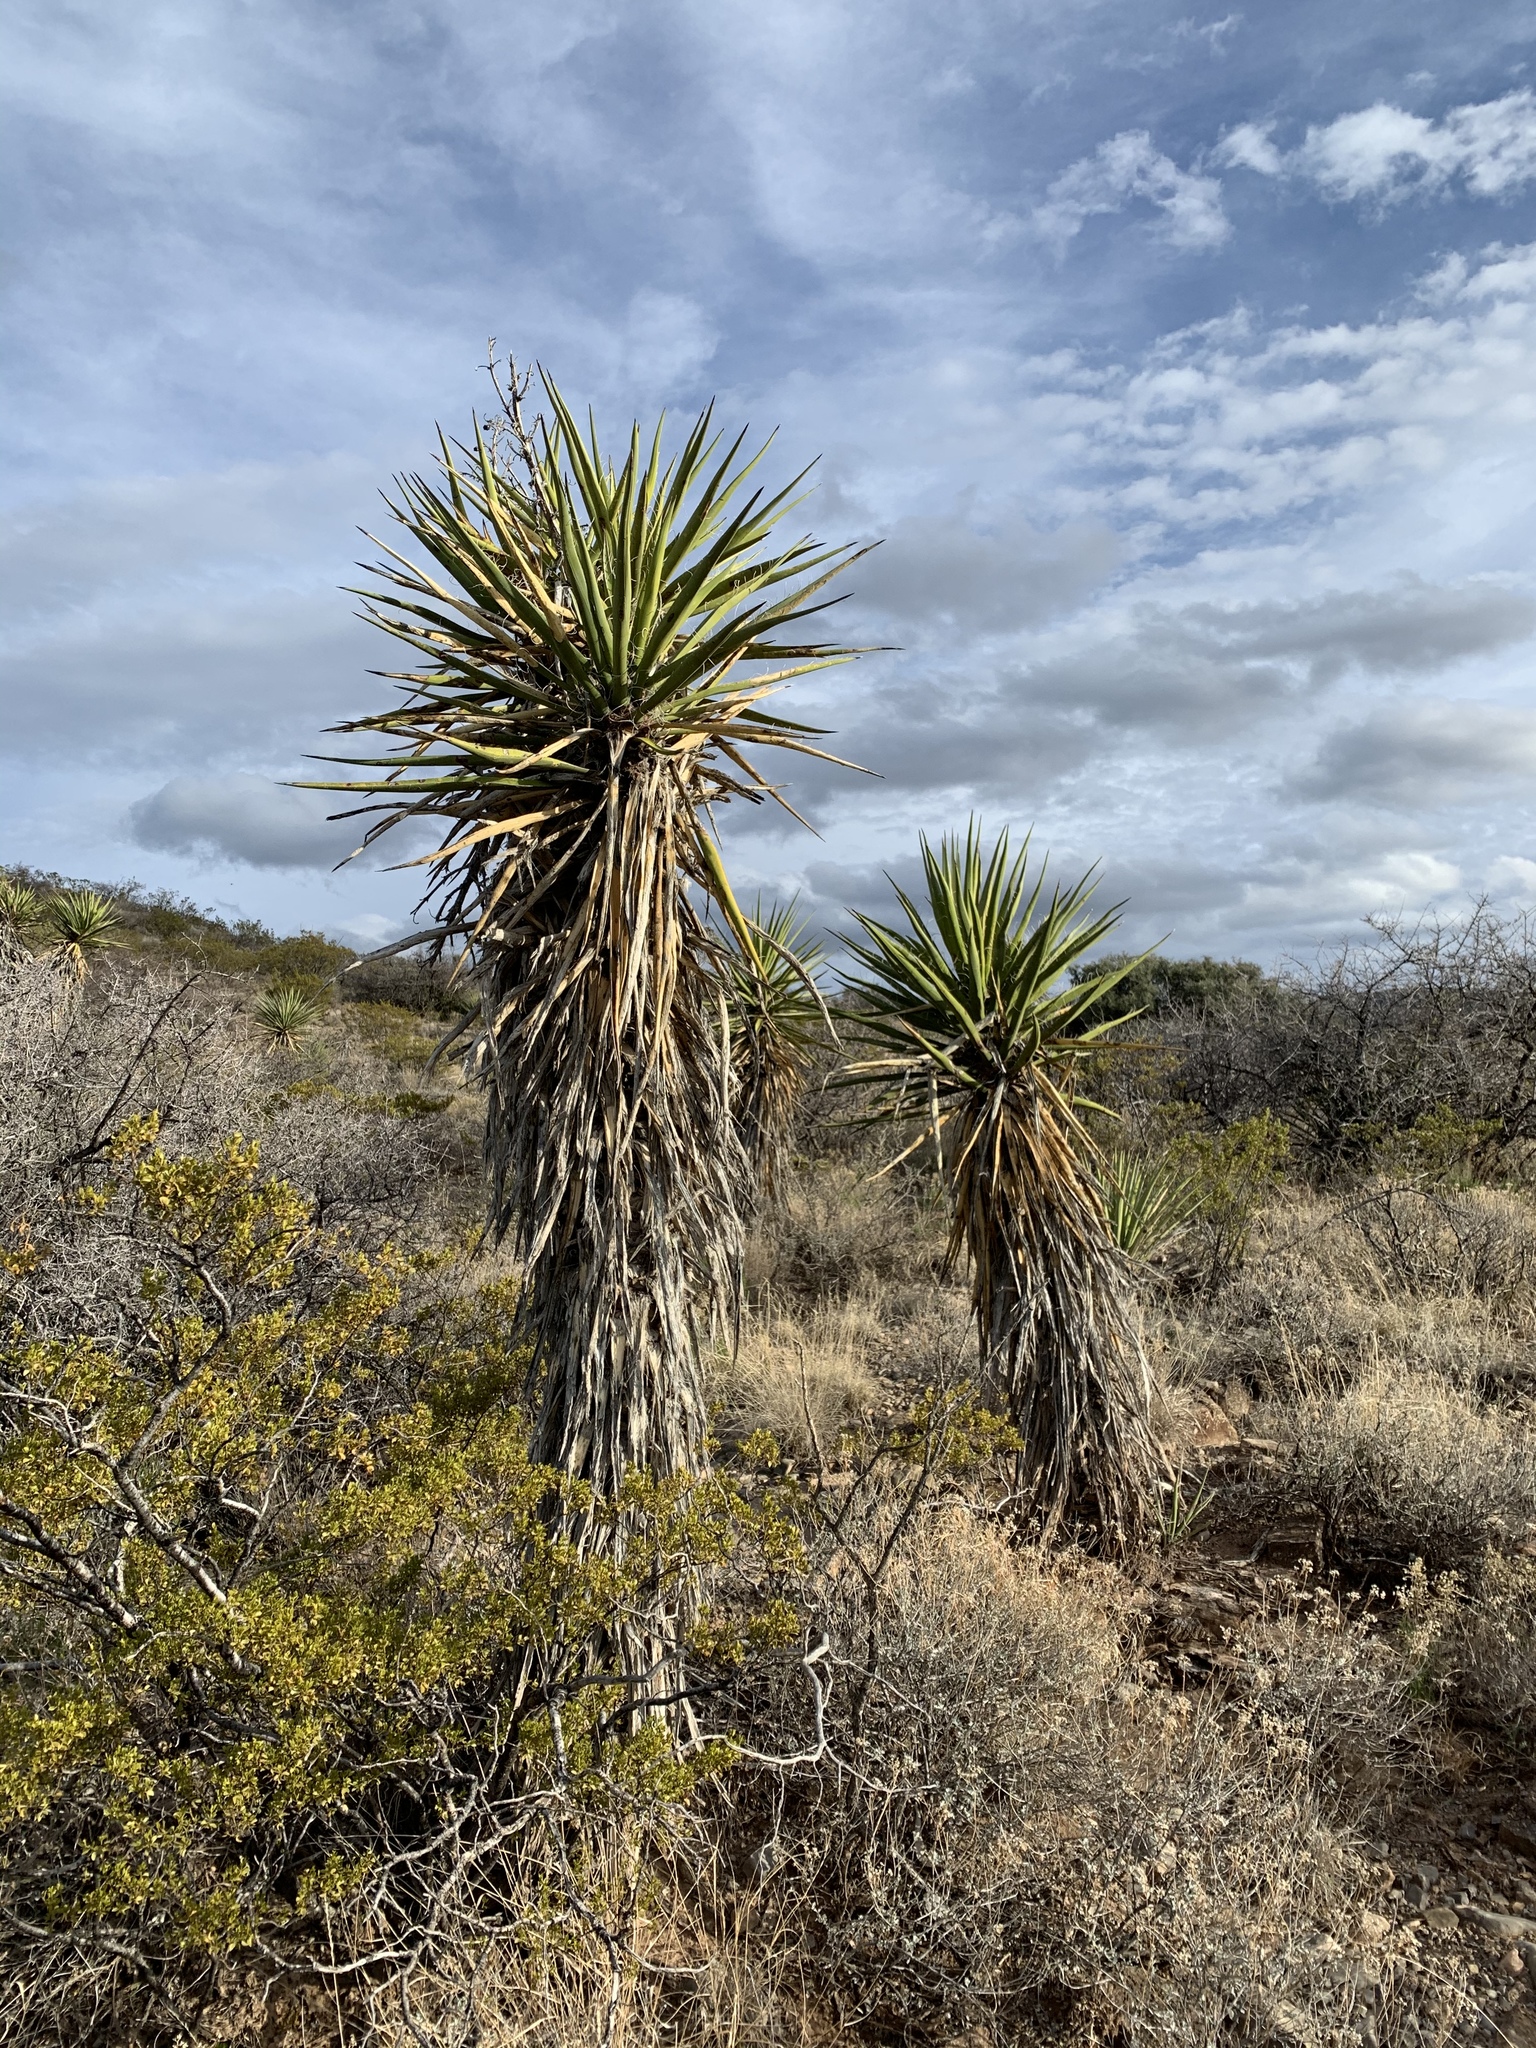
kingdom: Plantae
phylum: Tracheophyta
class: Liliopsida
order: Asparagales
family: Asparagaceae
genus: Yucca
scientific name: Yucca treculiana
